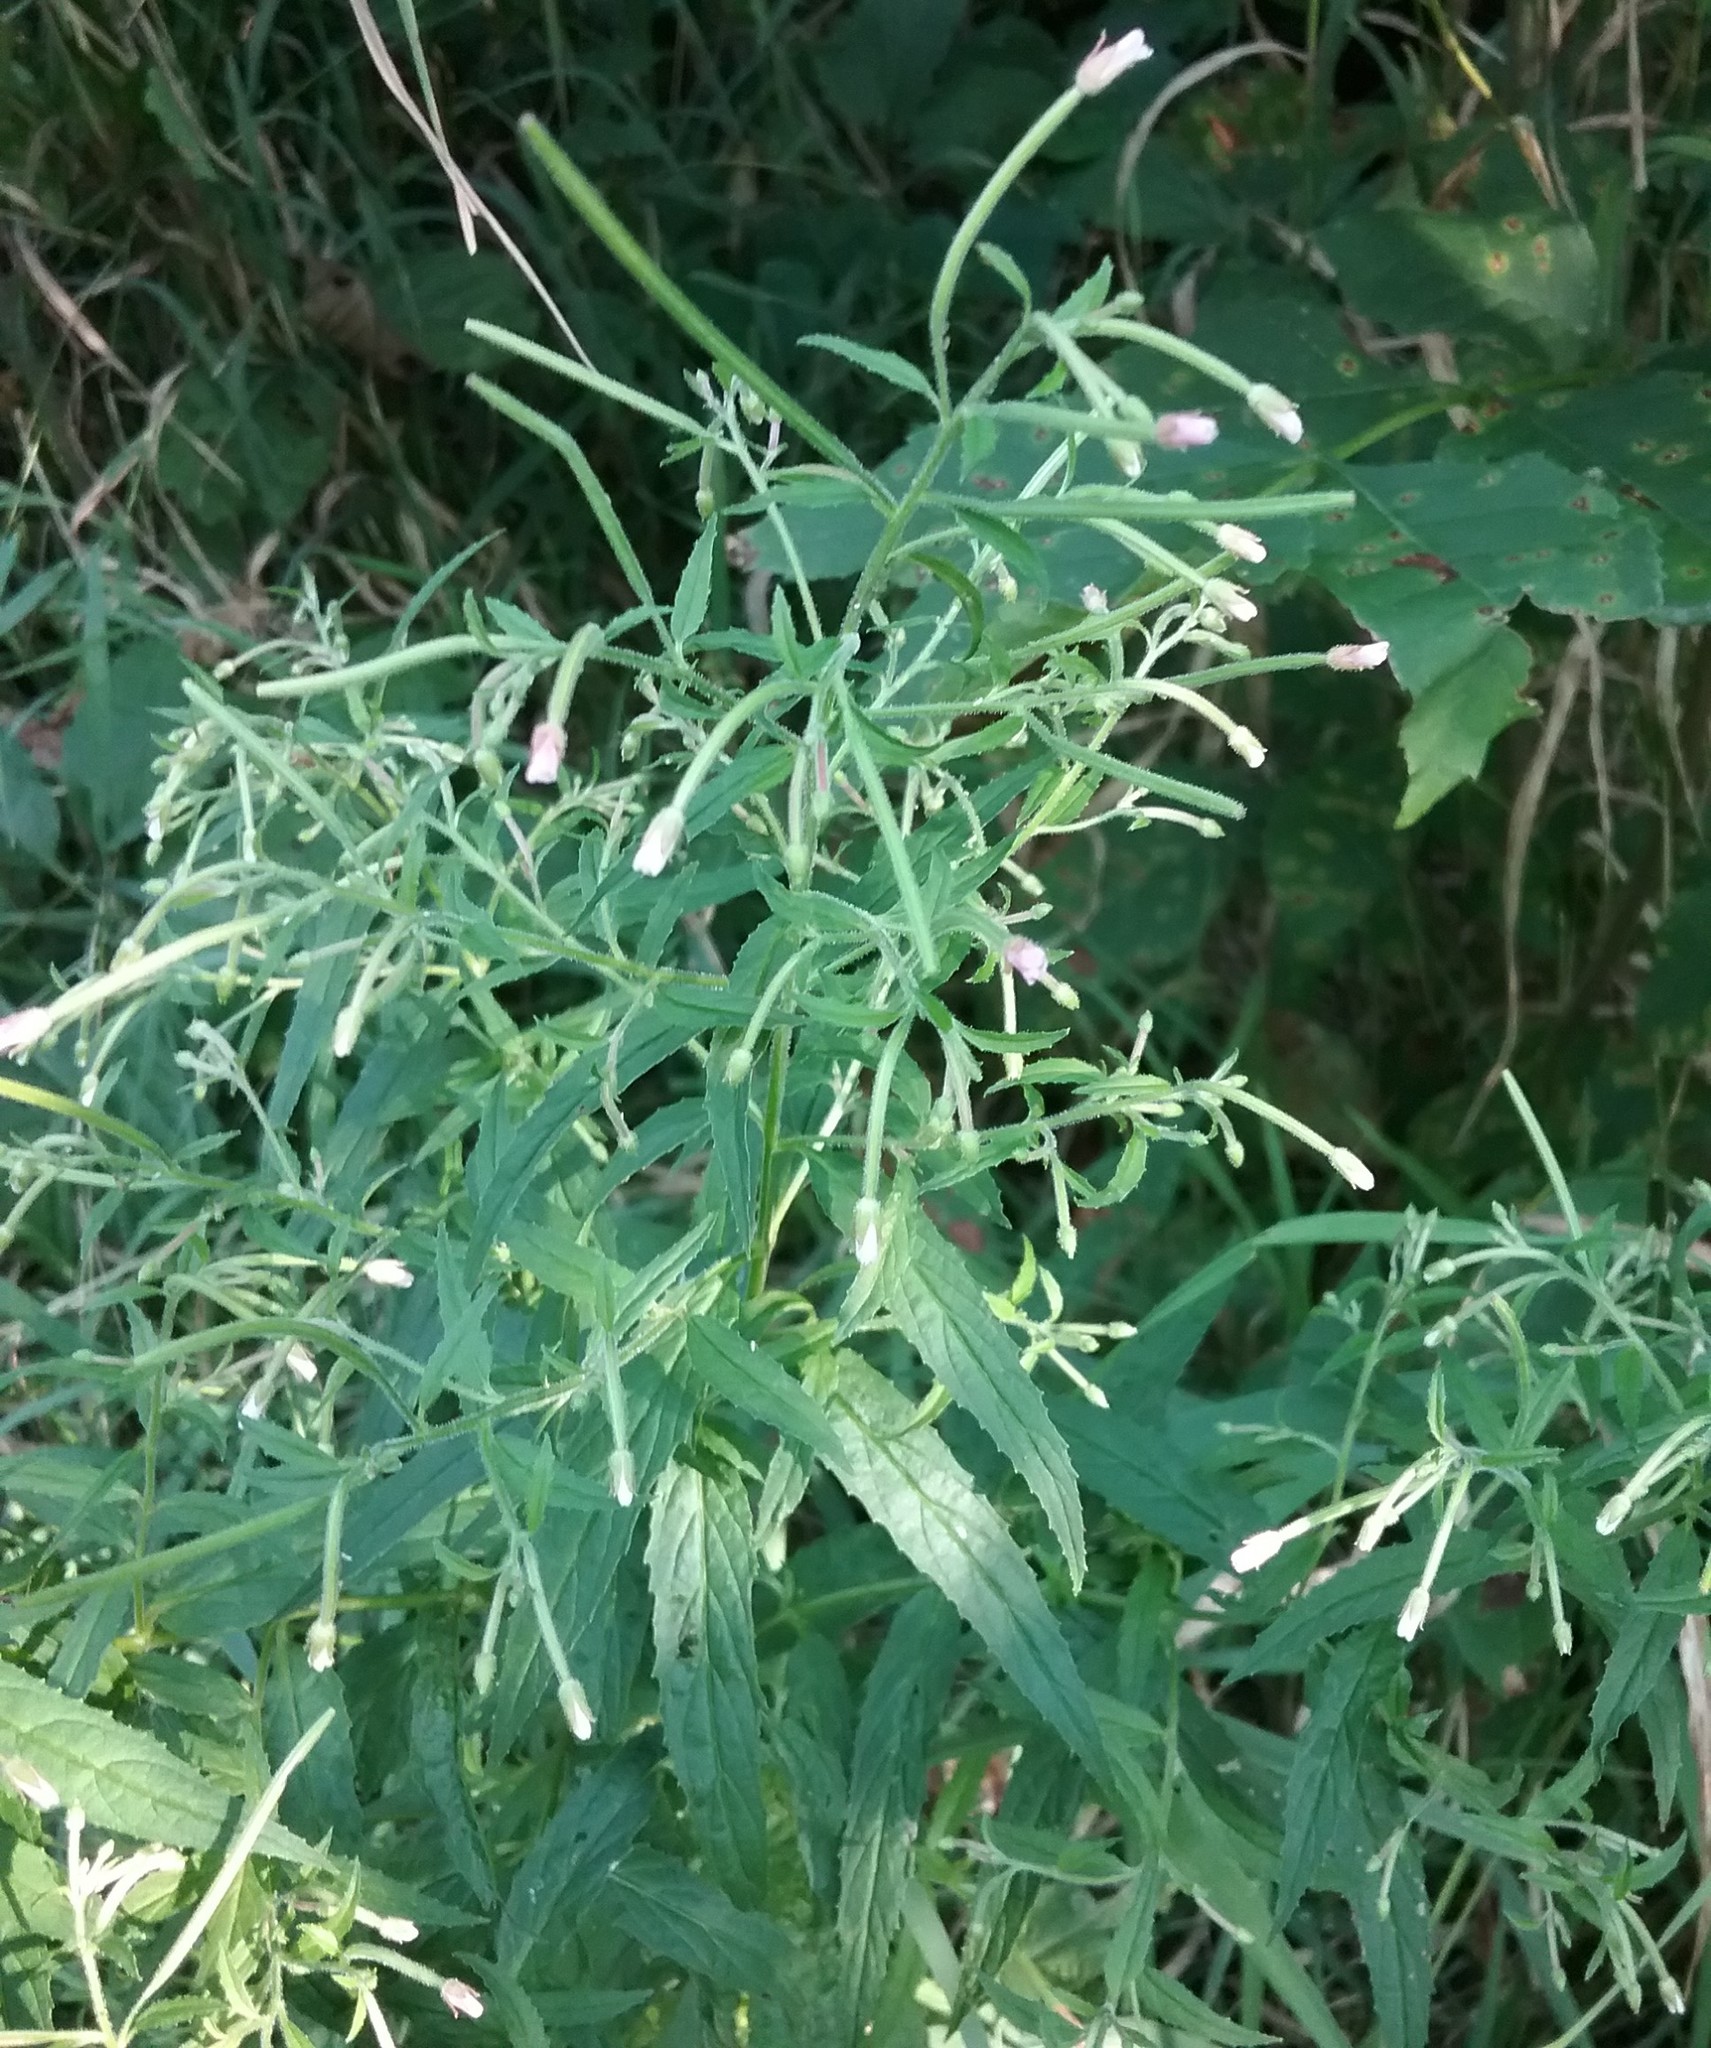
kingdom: Plantae
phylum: Tracheophyta
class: Magnoliopsida
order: Myrtales
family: Onagraceae
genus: Epilobium
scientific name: Epilobium hirsutum
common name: Great willowherb
